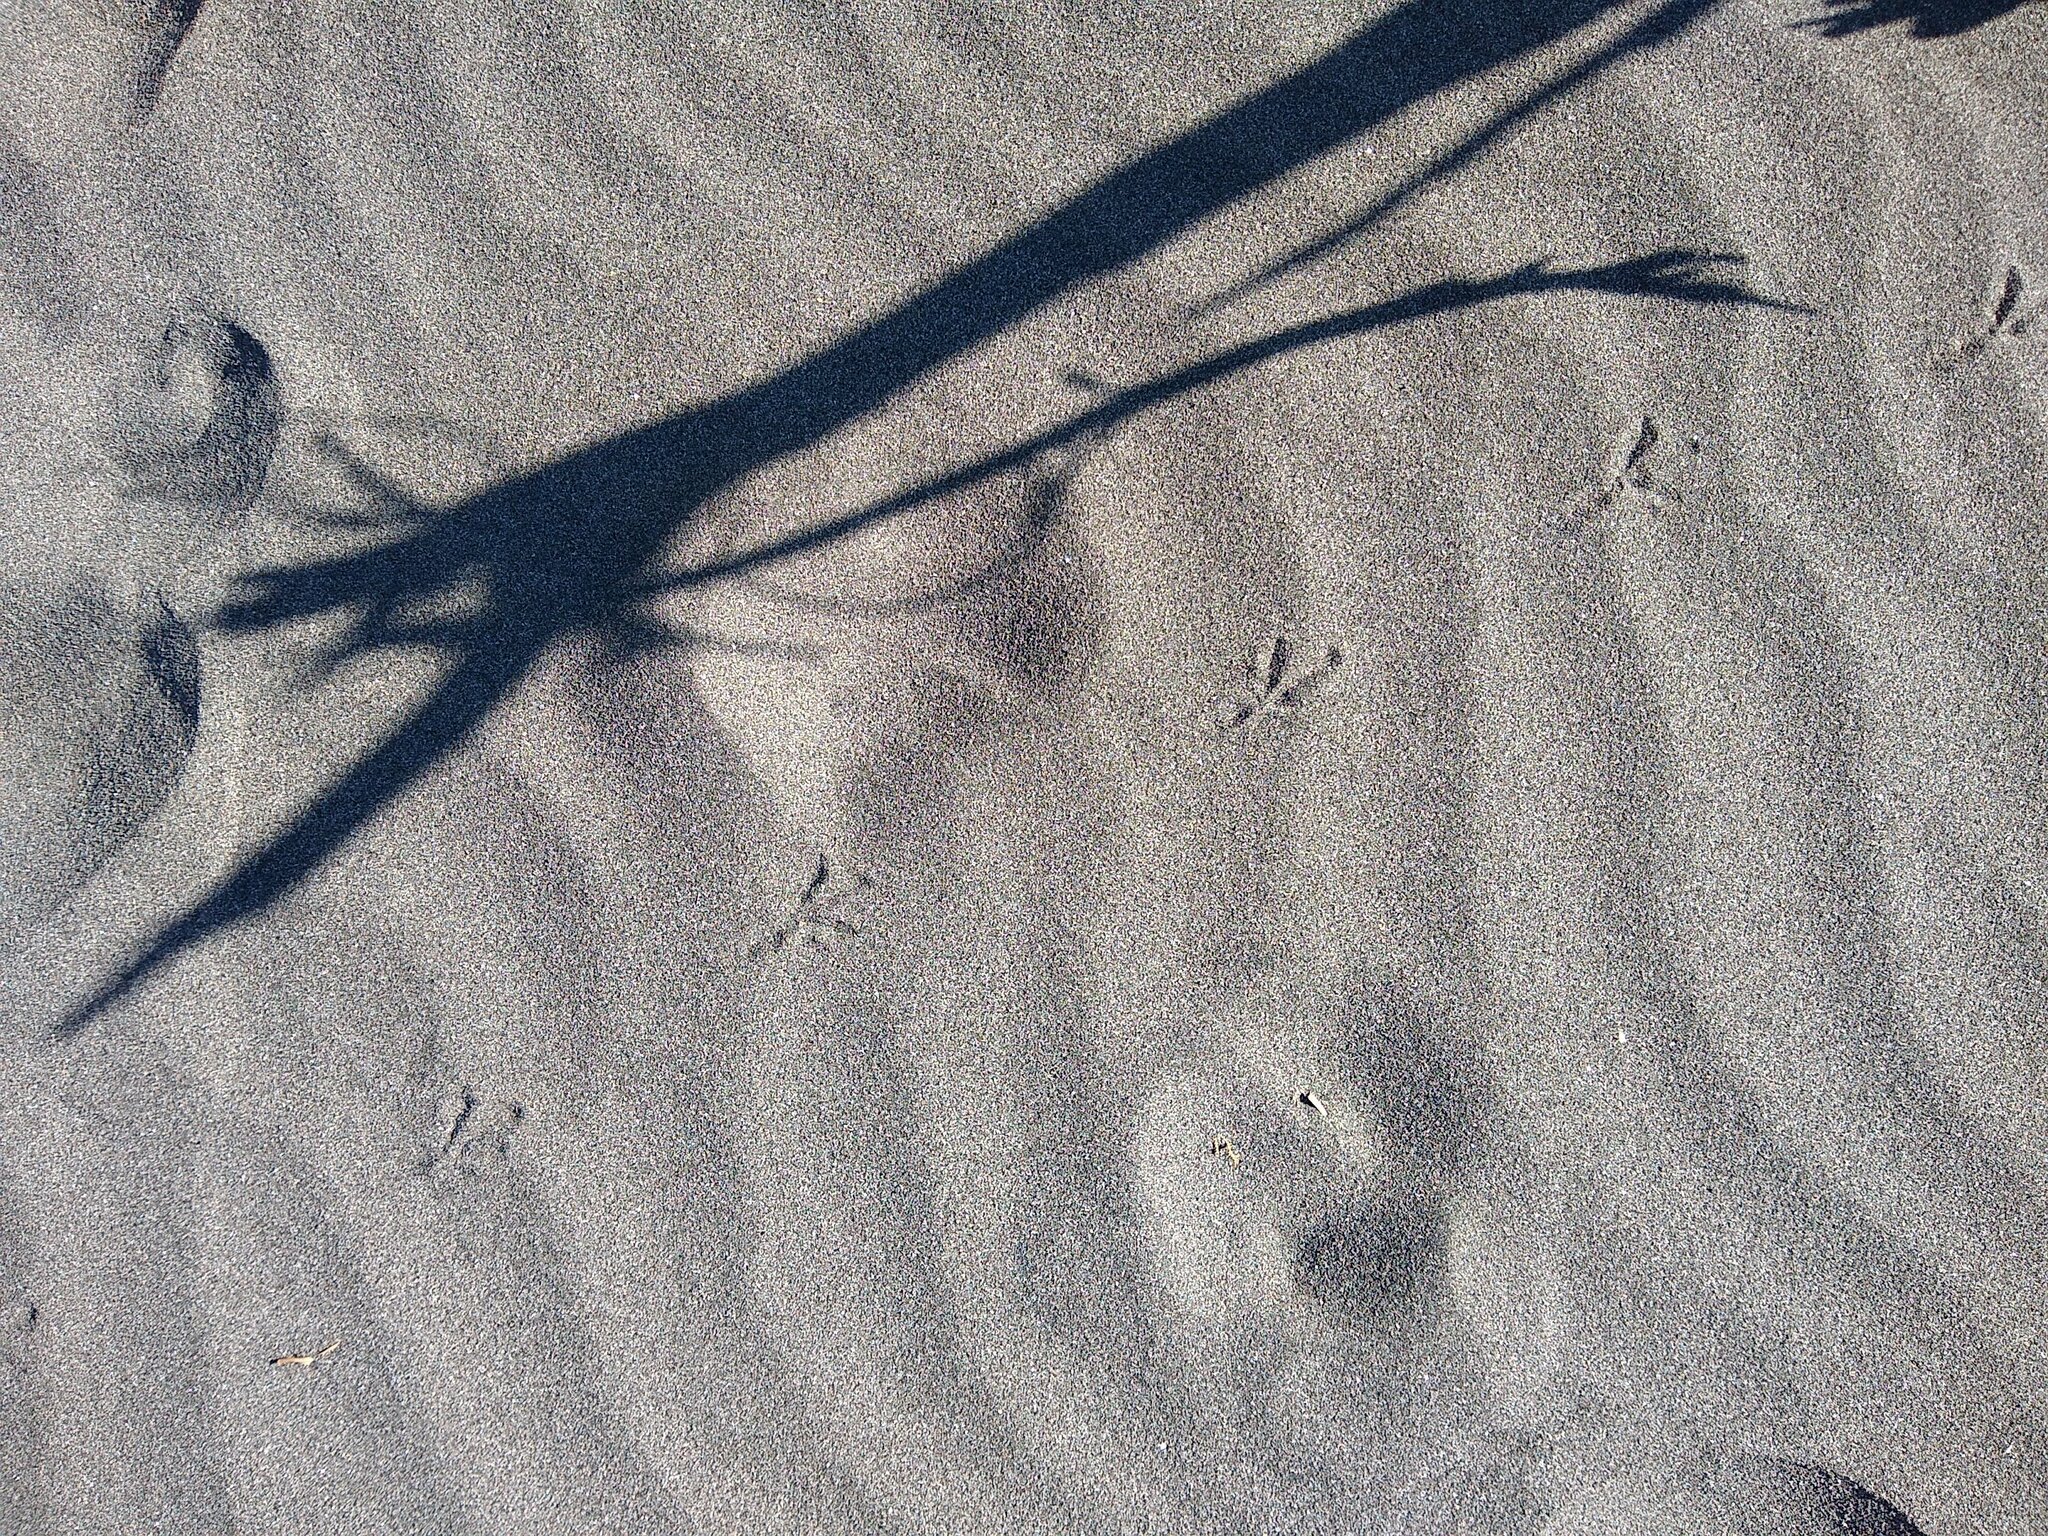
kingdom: Animalia
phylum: Chordata
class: Aves
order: Passeriformes
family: Turdidae
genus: Turdus
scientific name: Turdus merula
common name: Common blackbird
